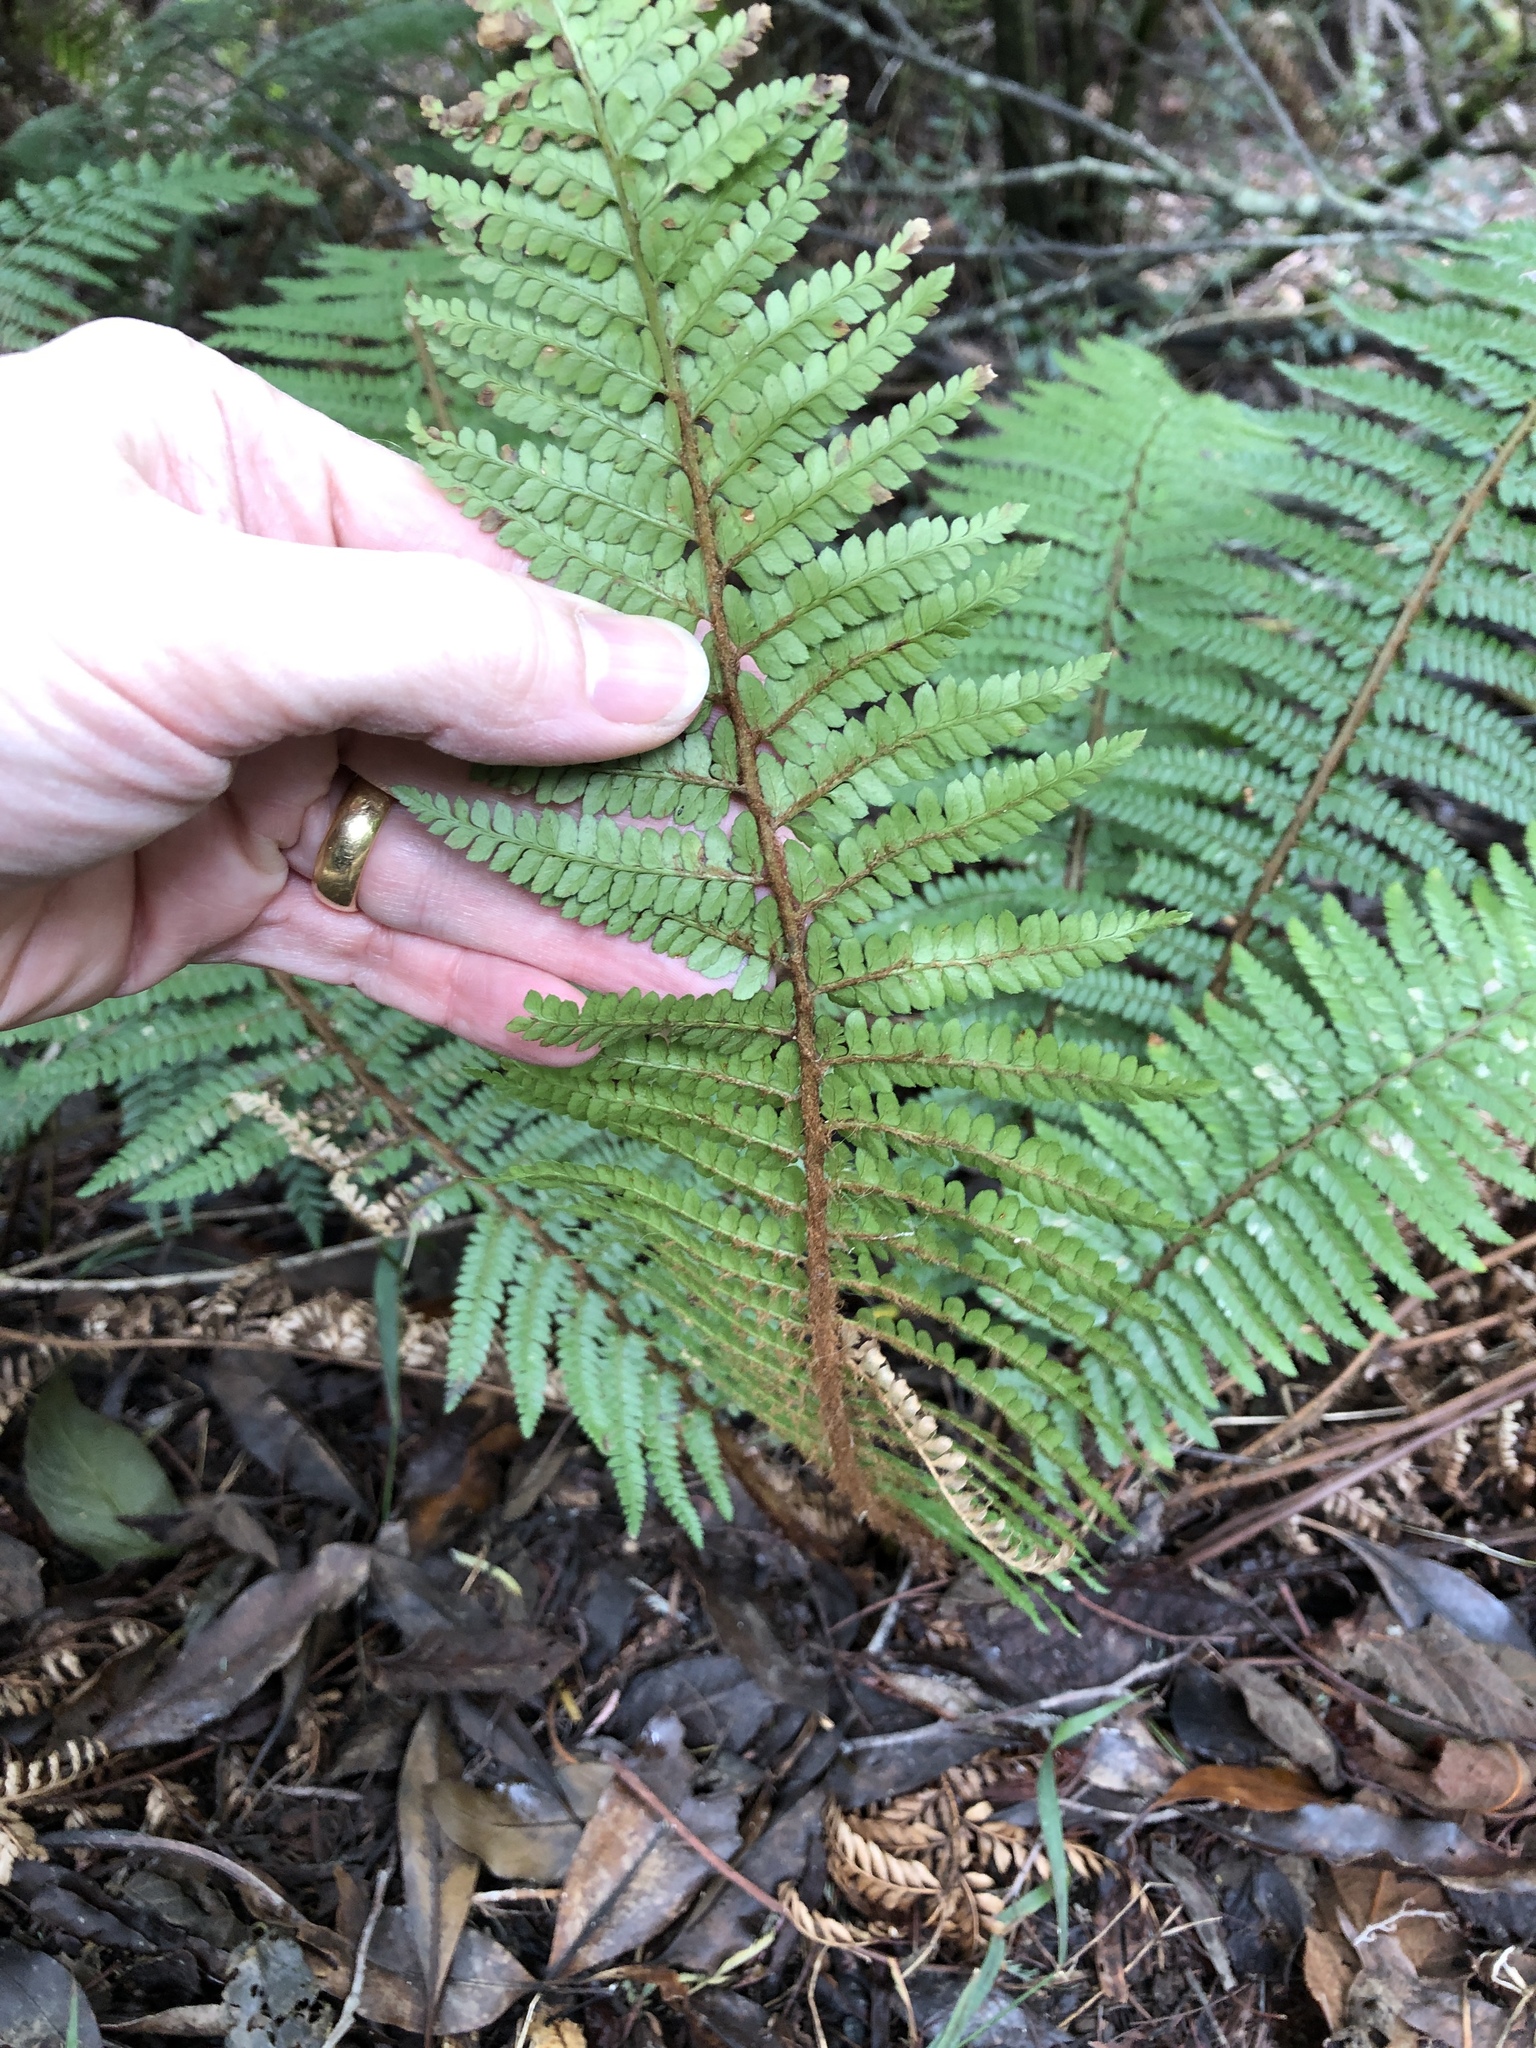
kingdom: Plantae
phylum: Tracheophyta
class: Polypodiopsida
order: Polypodiales
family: Dryopteridaceae
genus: Polystichum
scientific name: Polystichum proliferum
